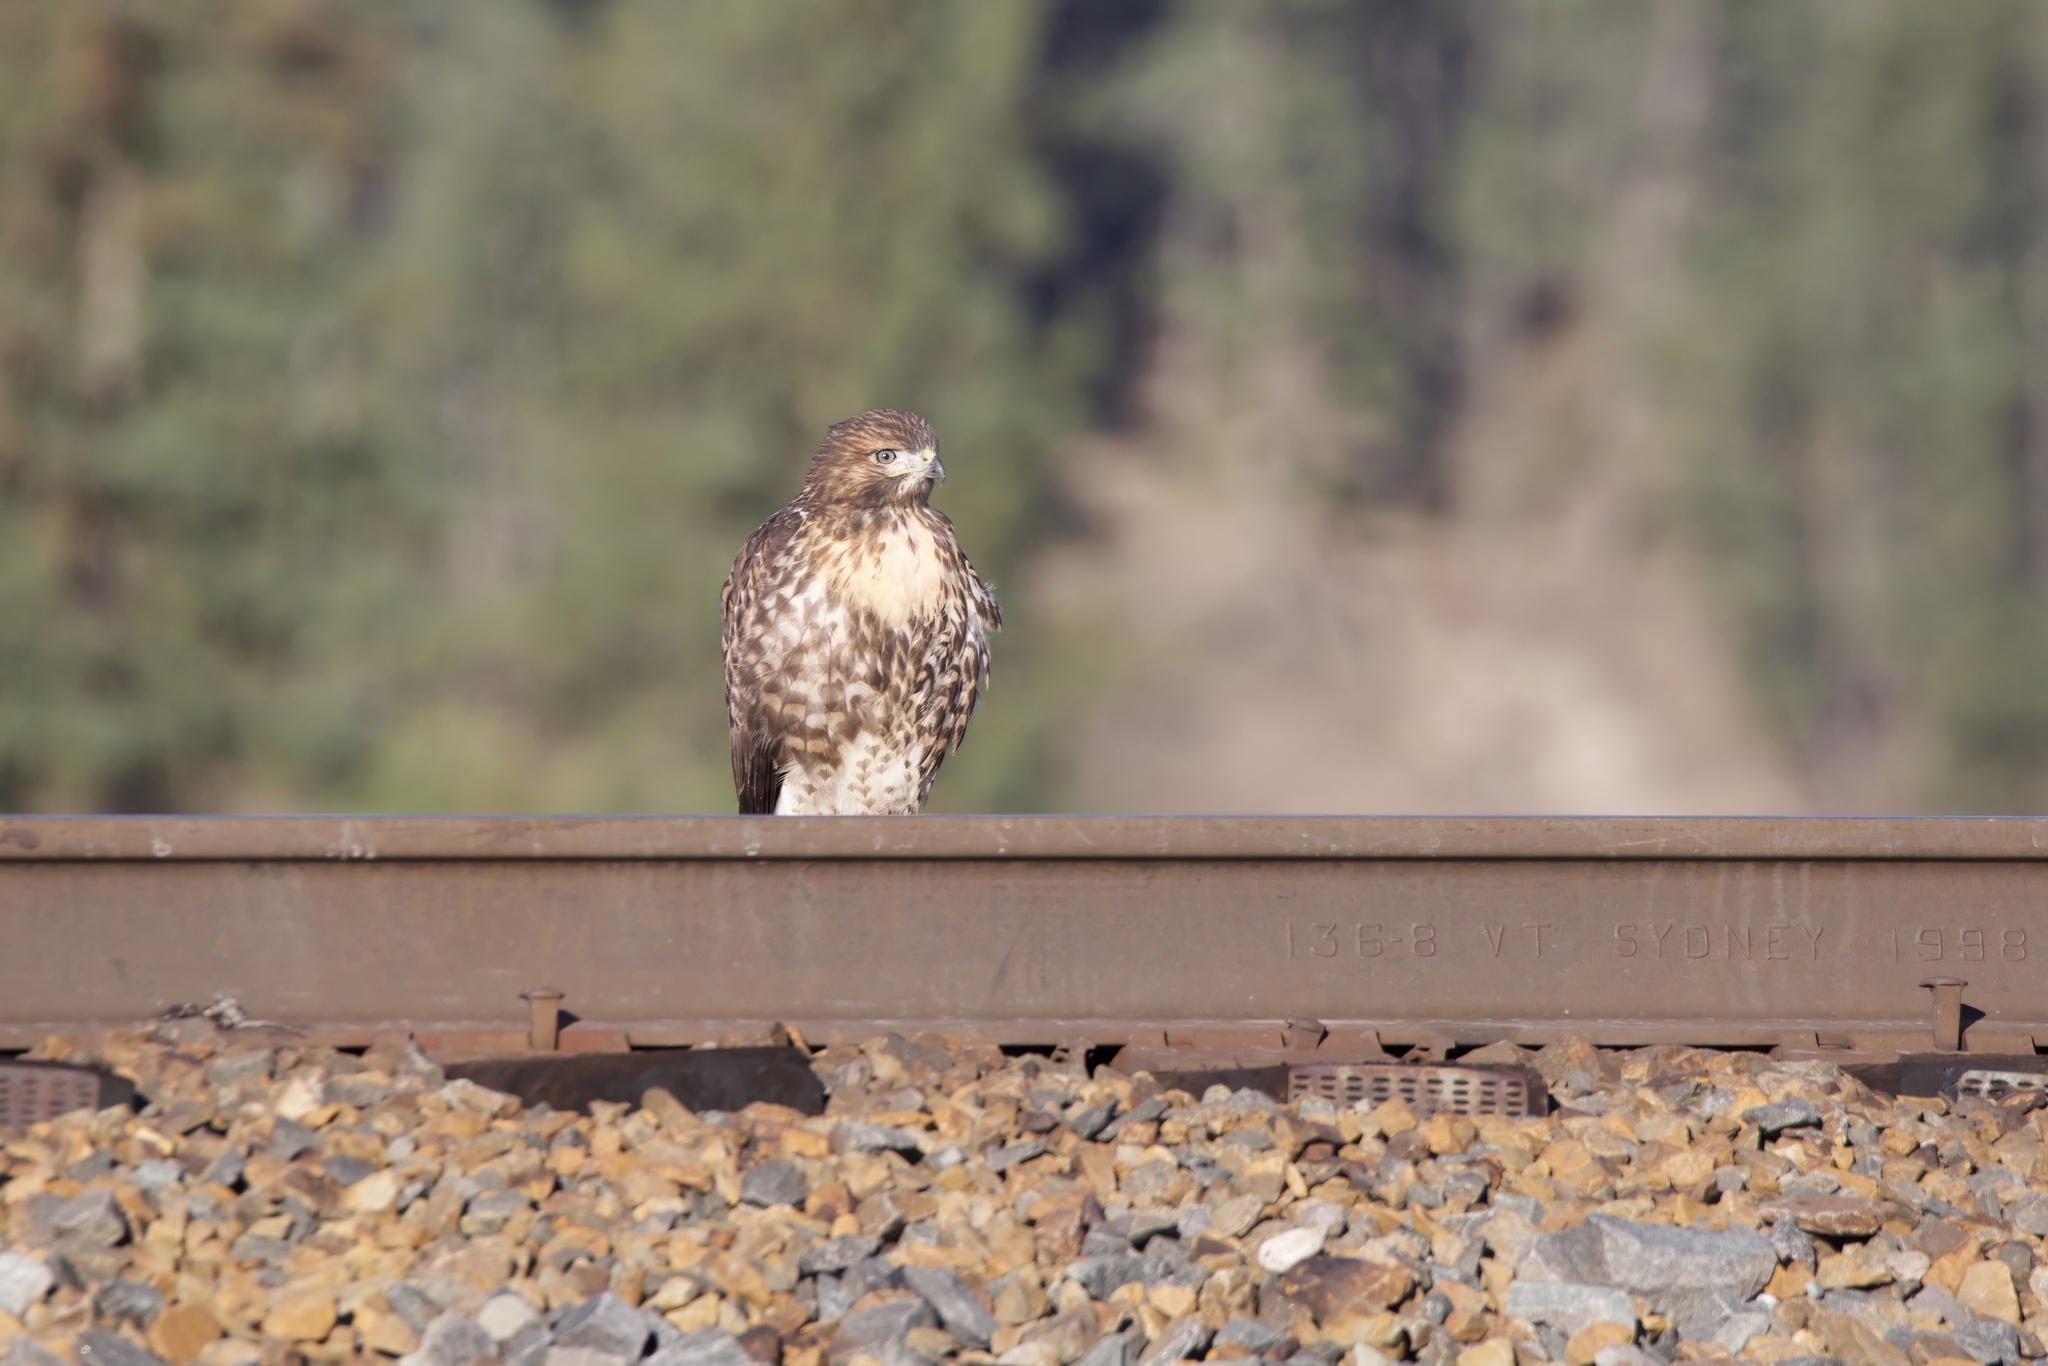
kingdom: Animalia
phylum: Chordata
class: Aves
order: Accipitriformes
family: Accipitridae
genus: Buteo
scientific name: Buteo jamaicensis
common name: Red-tailed hawk
